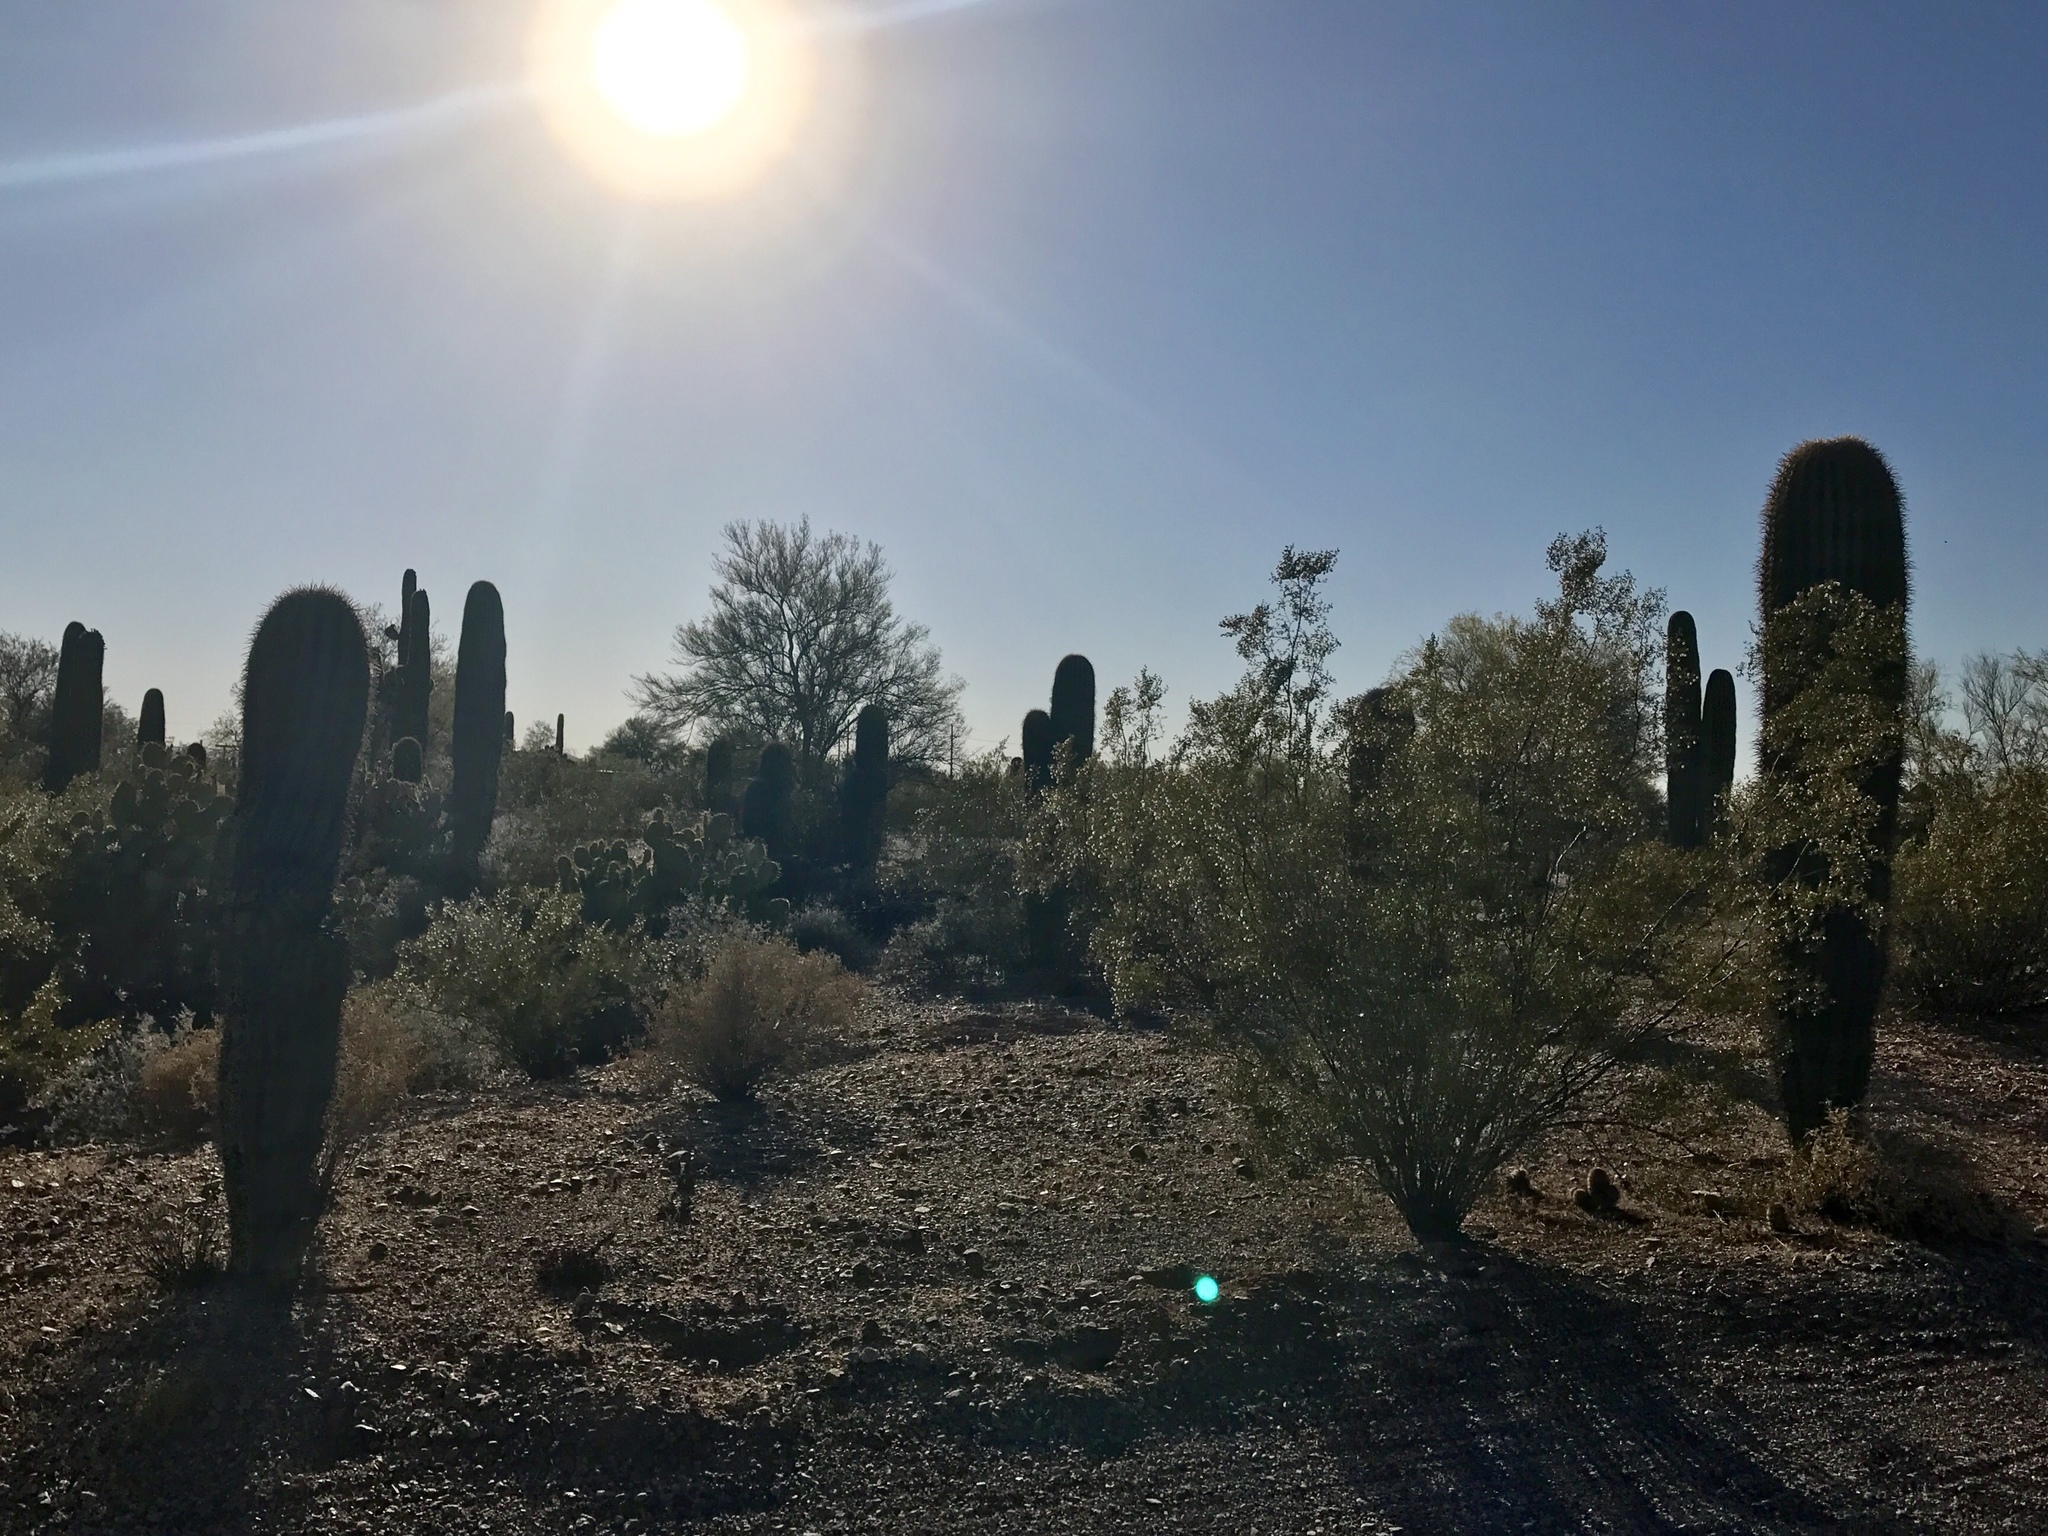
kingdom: Plantae
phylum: Tracheophyta
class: Magnoliopsida
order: Caryophyllales
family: Cactaceae
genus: Carnegiea
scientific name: Carnegiea gigantea
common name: Saguaro
